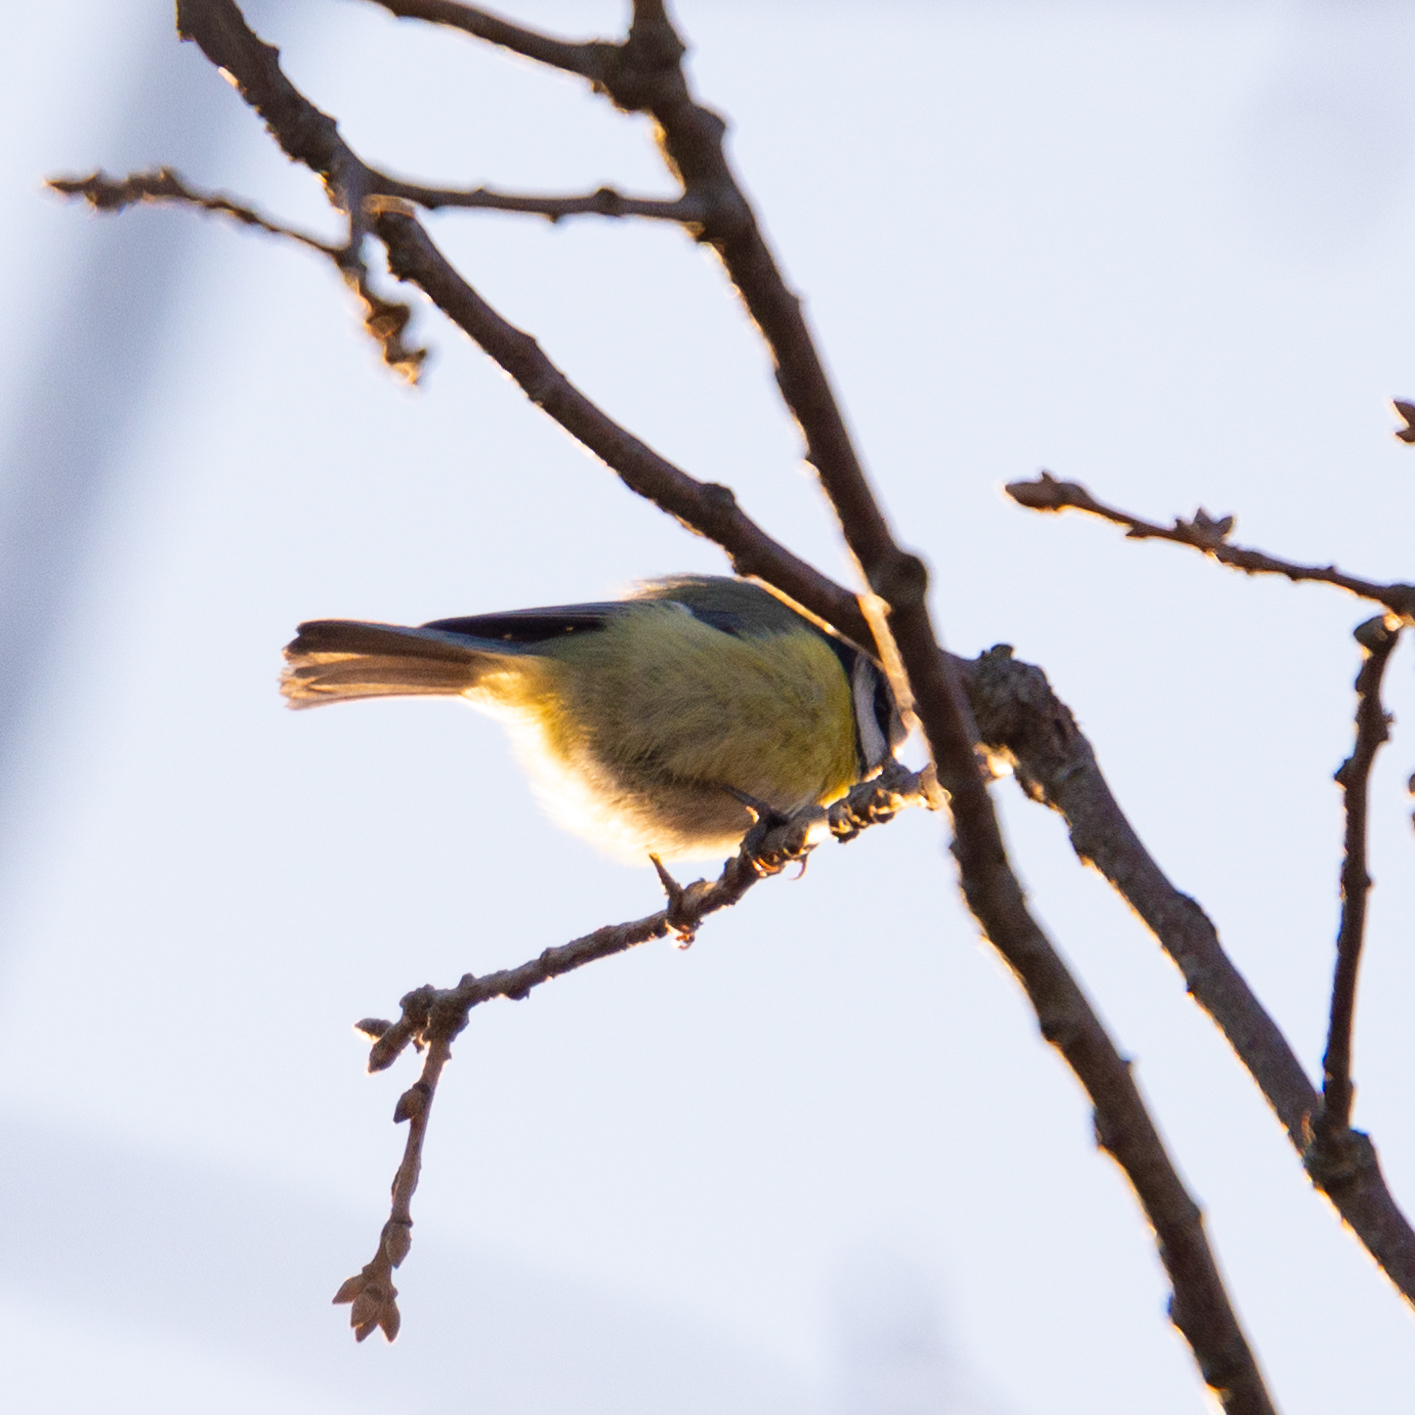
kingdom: Animalia
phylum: Chordata
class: Aves
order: Passeriformes
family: Paridae
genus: Cyanistes
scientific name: Cyanistes caeruleus
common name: Eurasian blue tit
